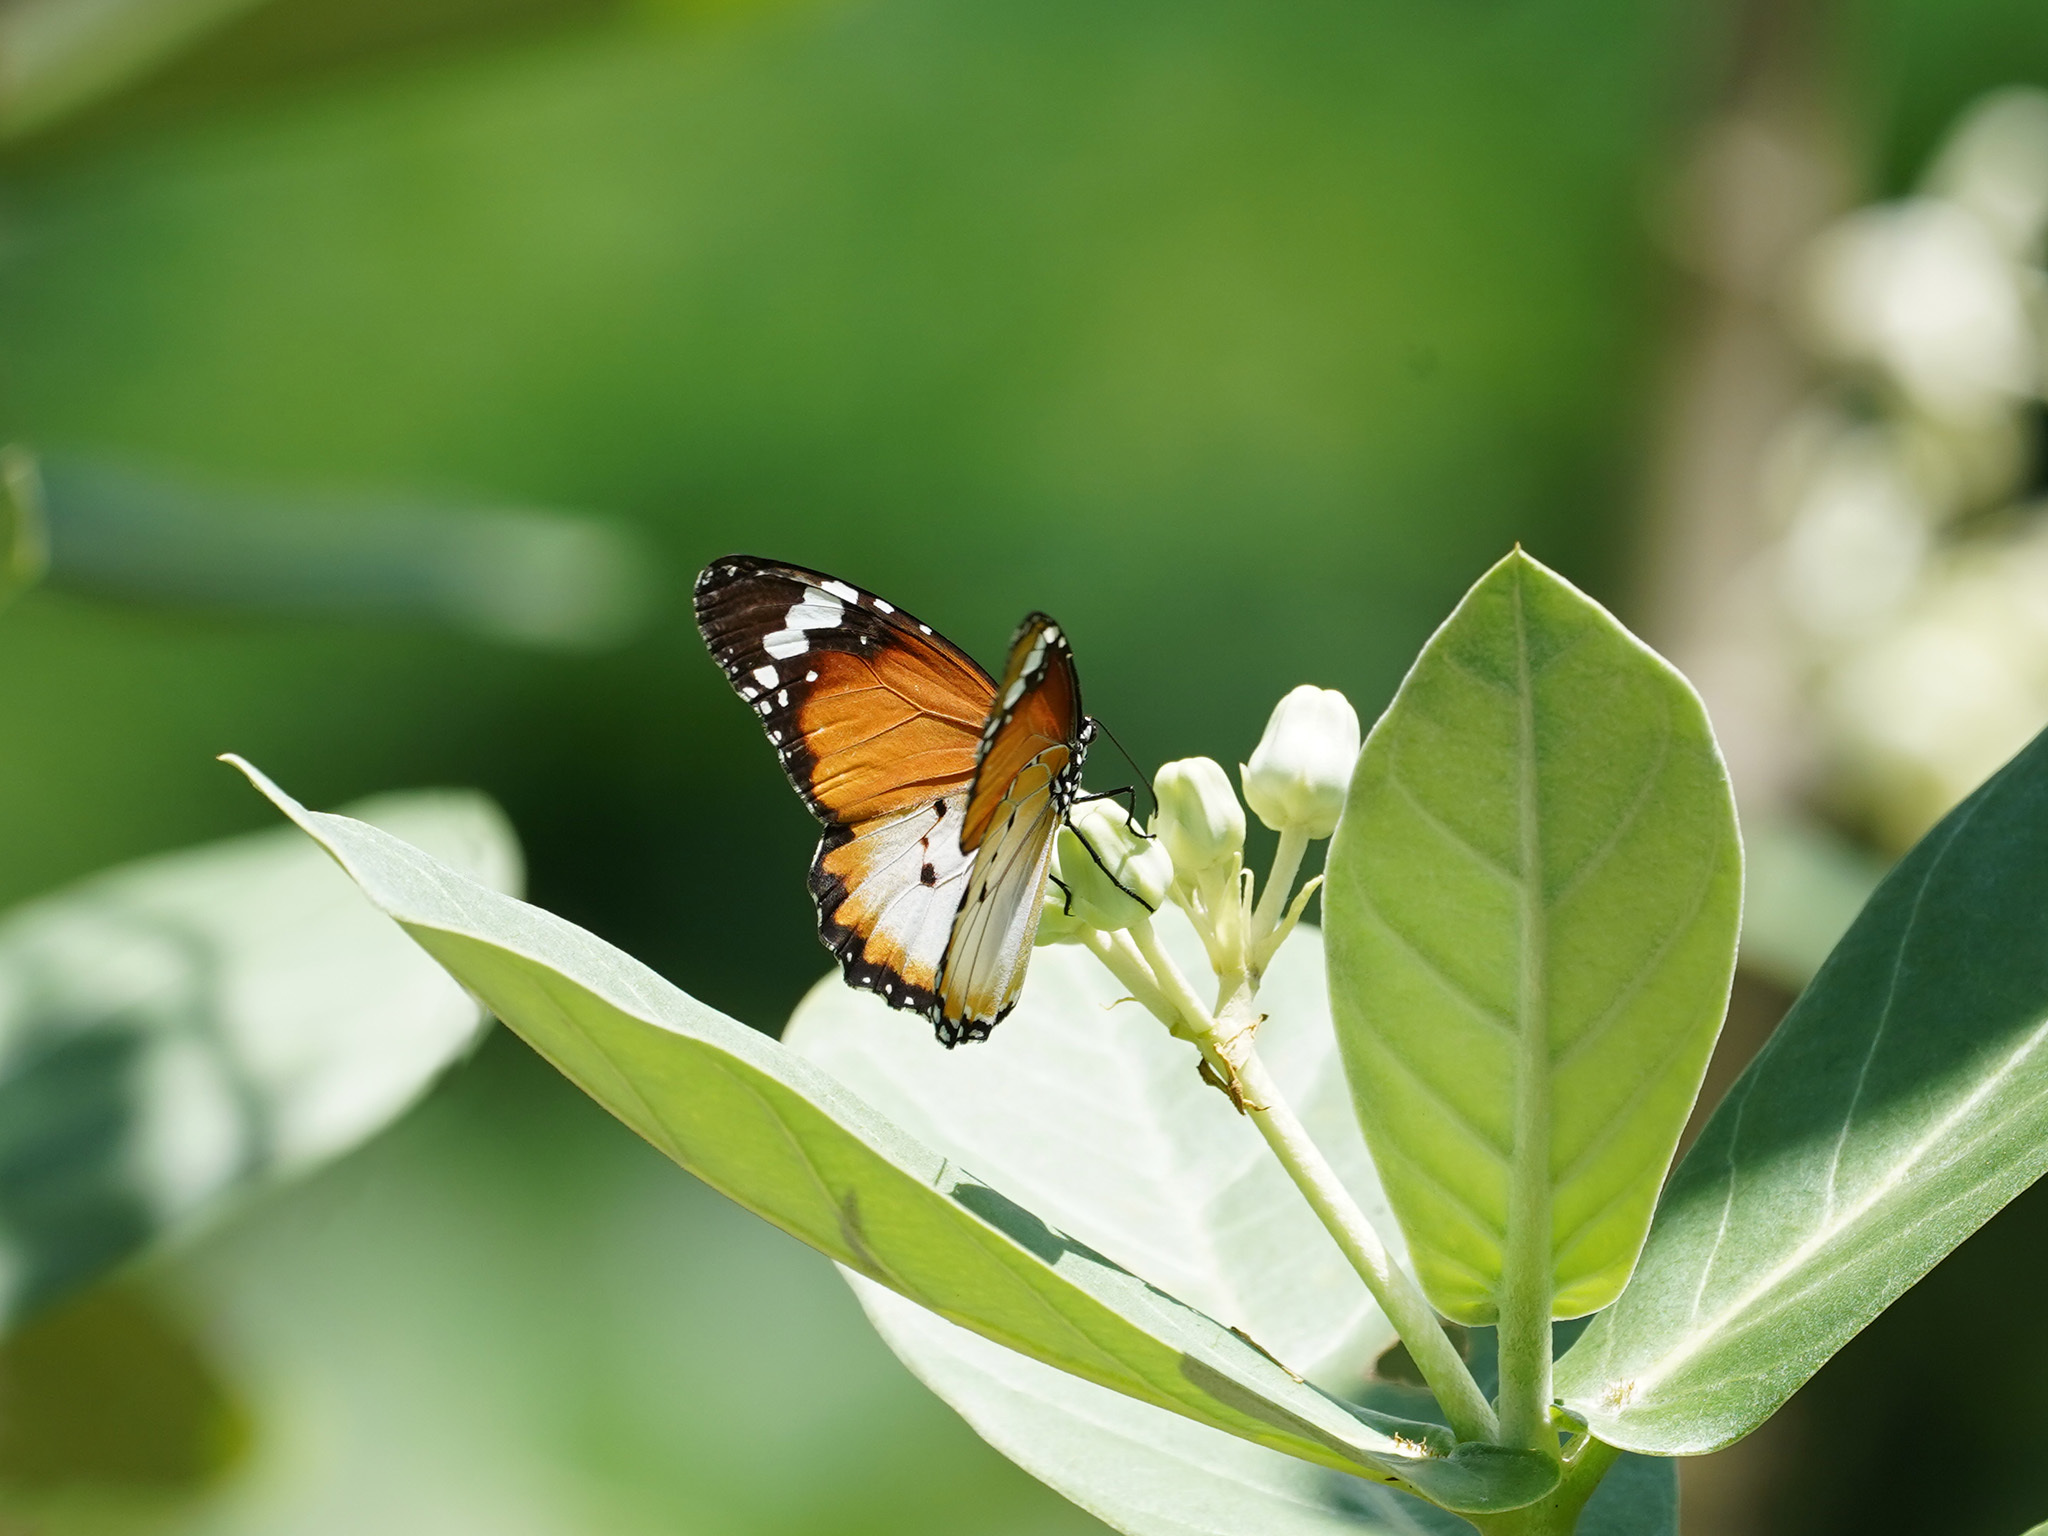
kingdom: Animalia
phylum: Arthropoda
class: Insecta
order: Lepidoptera
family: Nymphalidae
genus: Danaus
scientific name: Danaus chrysippus
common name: Plain tiger
